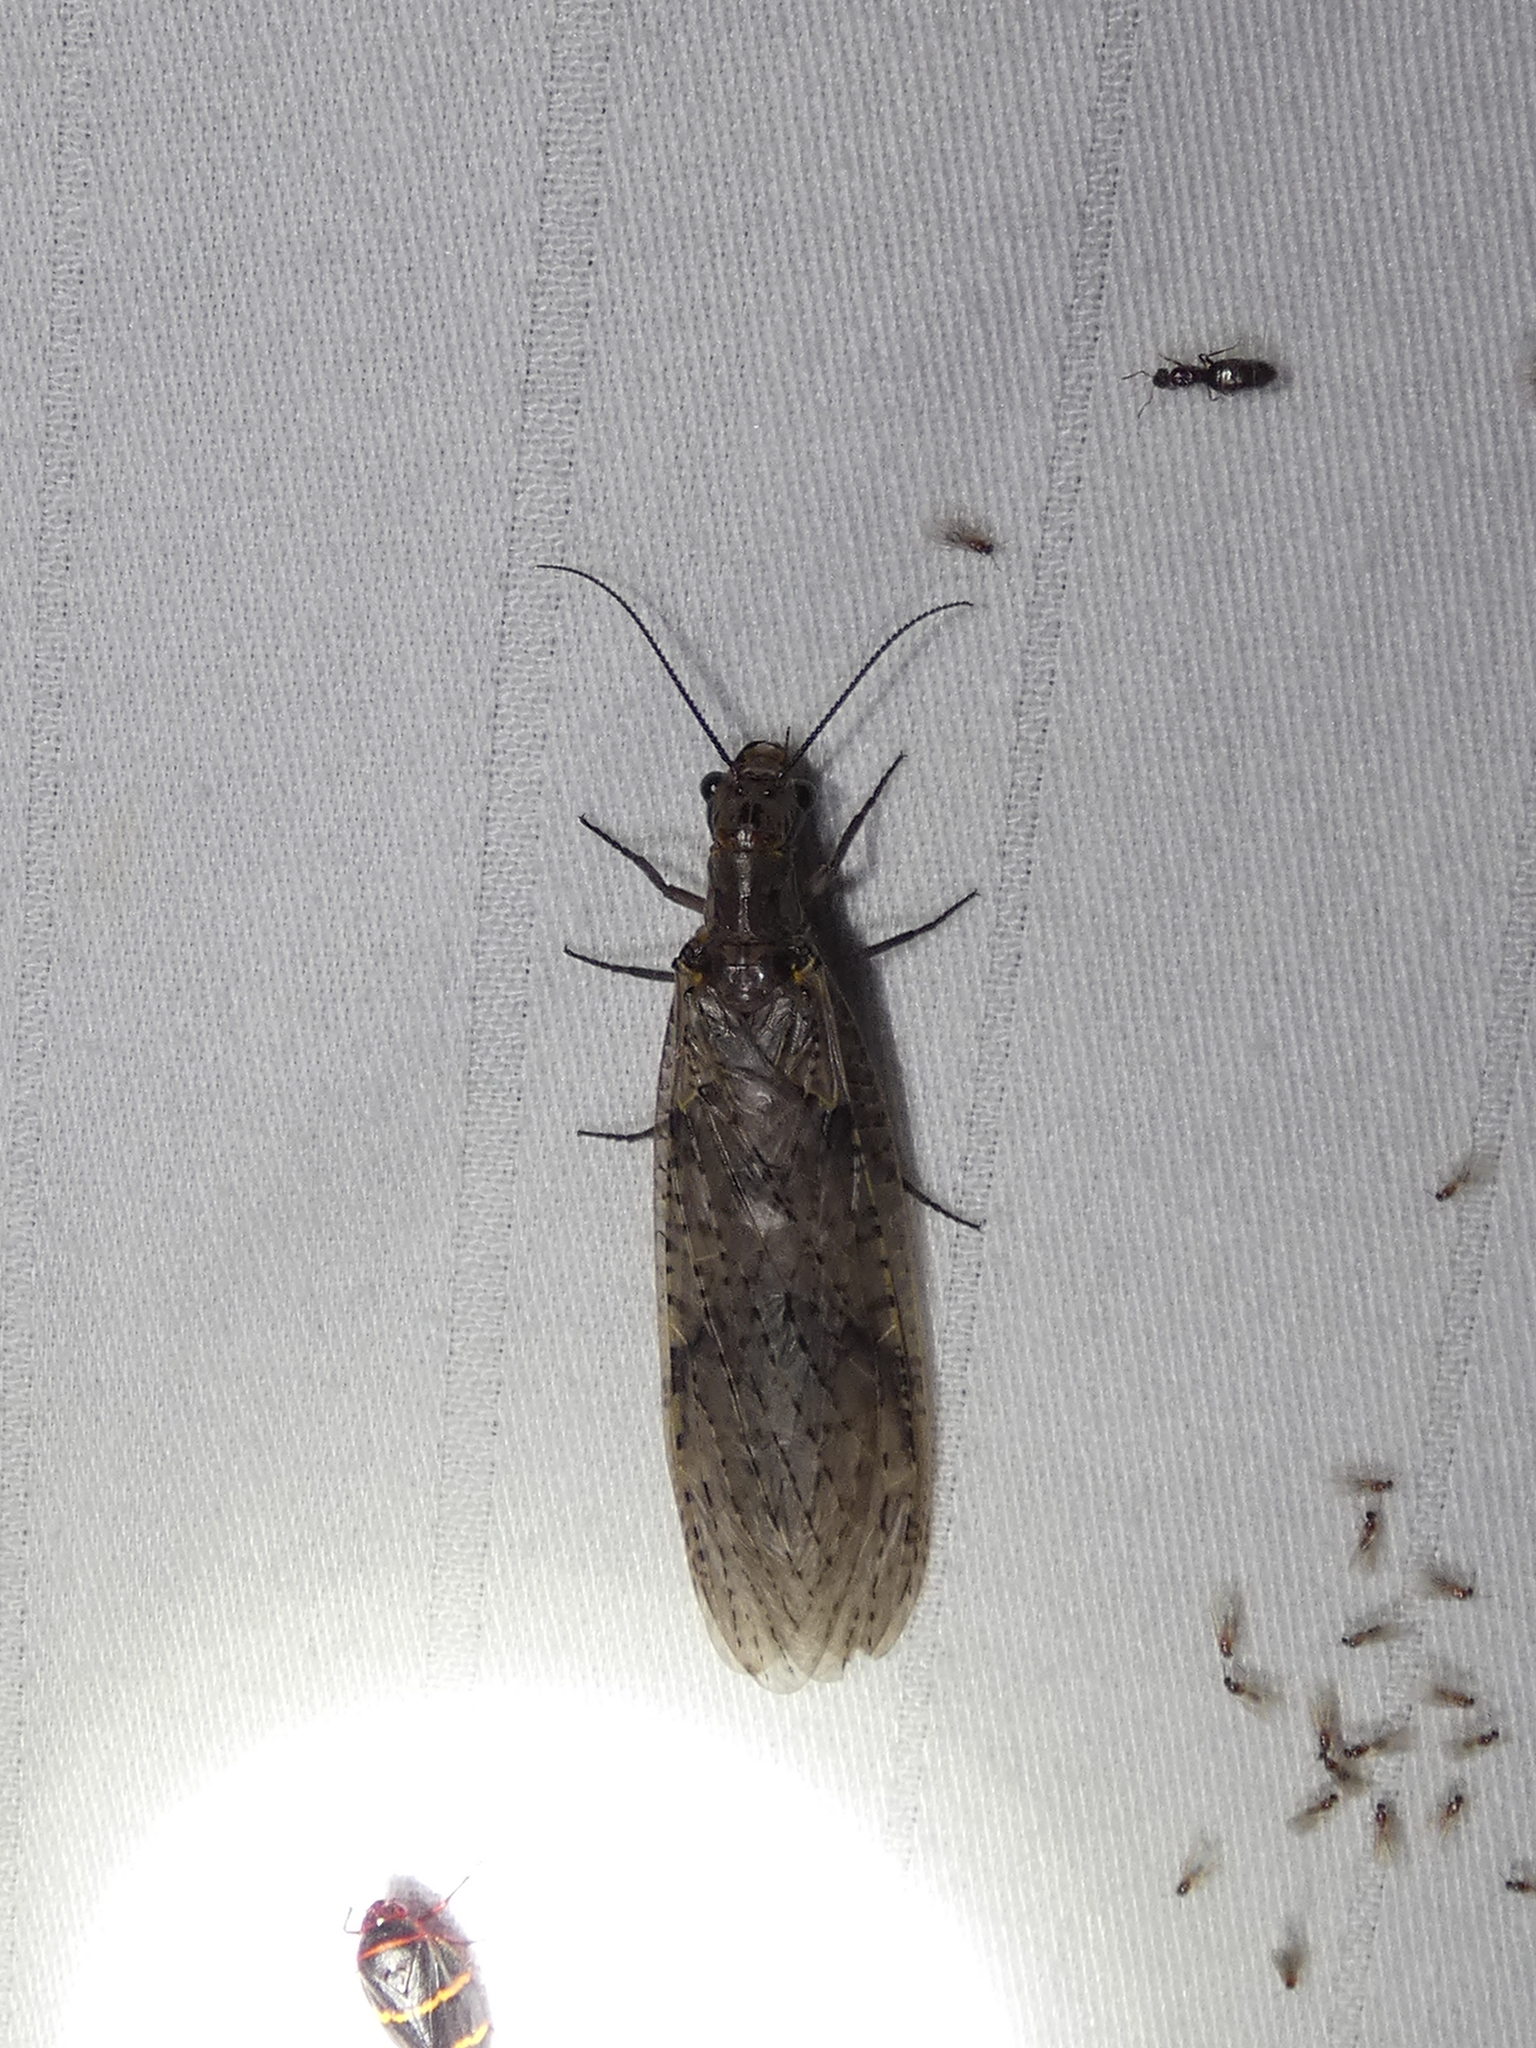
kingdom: Animalia
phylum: Arthropoda
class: Insecta
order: Megaloptera
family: Corydalidae
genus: Chauliodes
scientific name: Chauliodes rastricornis
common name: Spring fishfly
